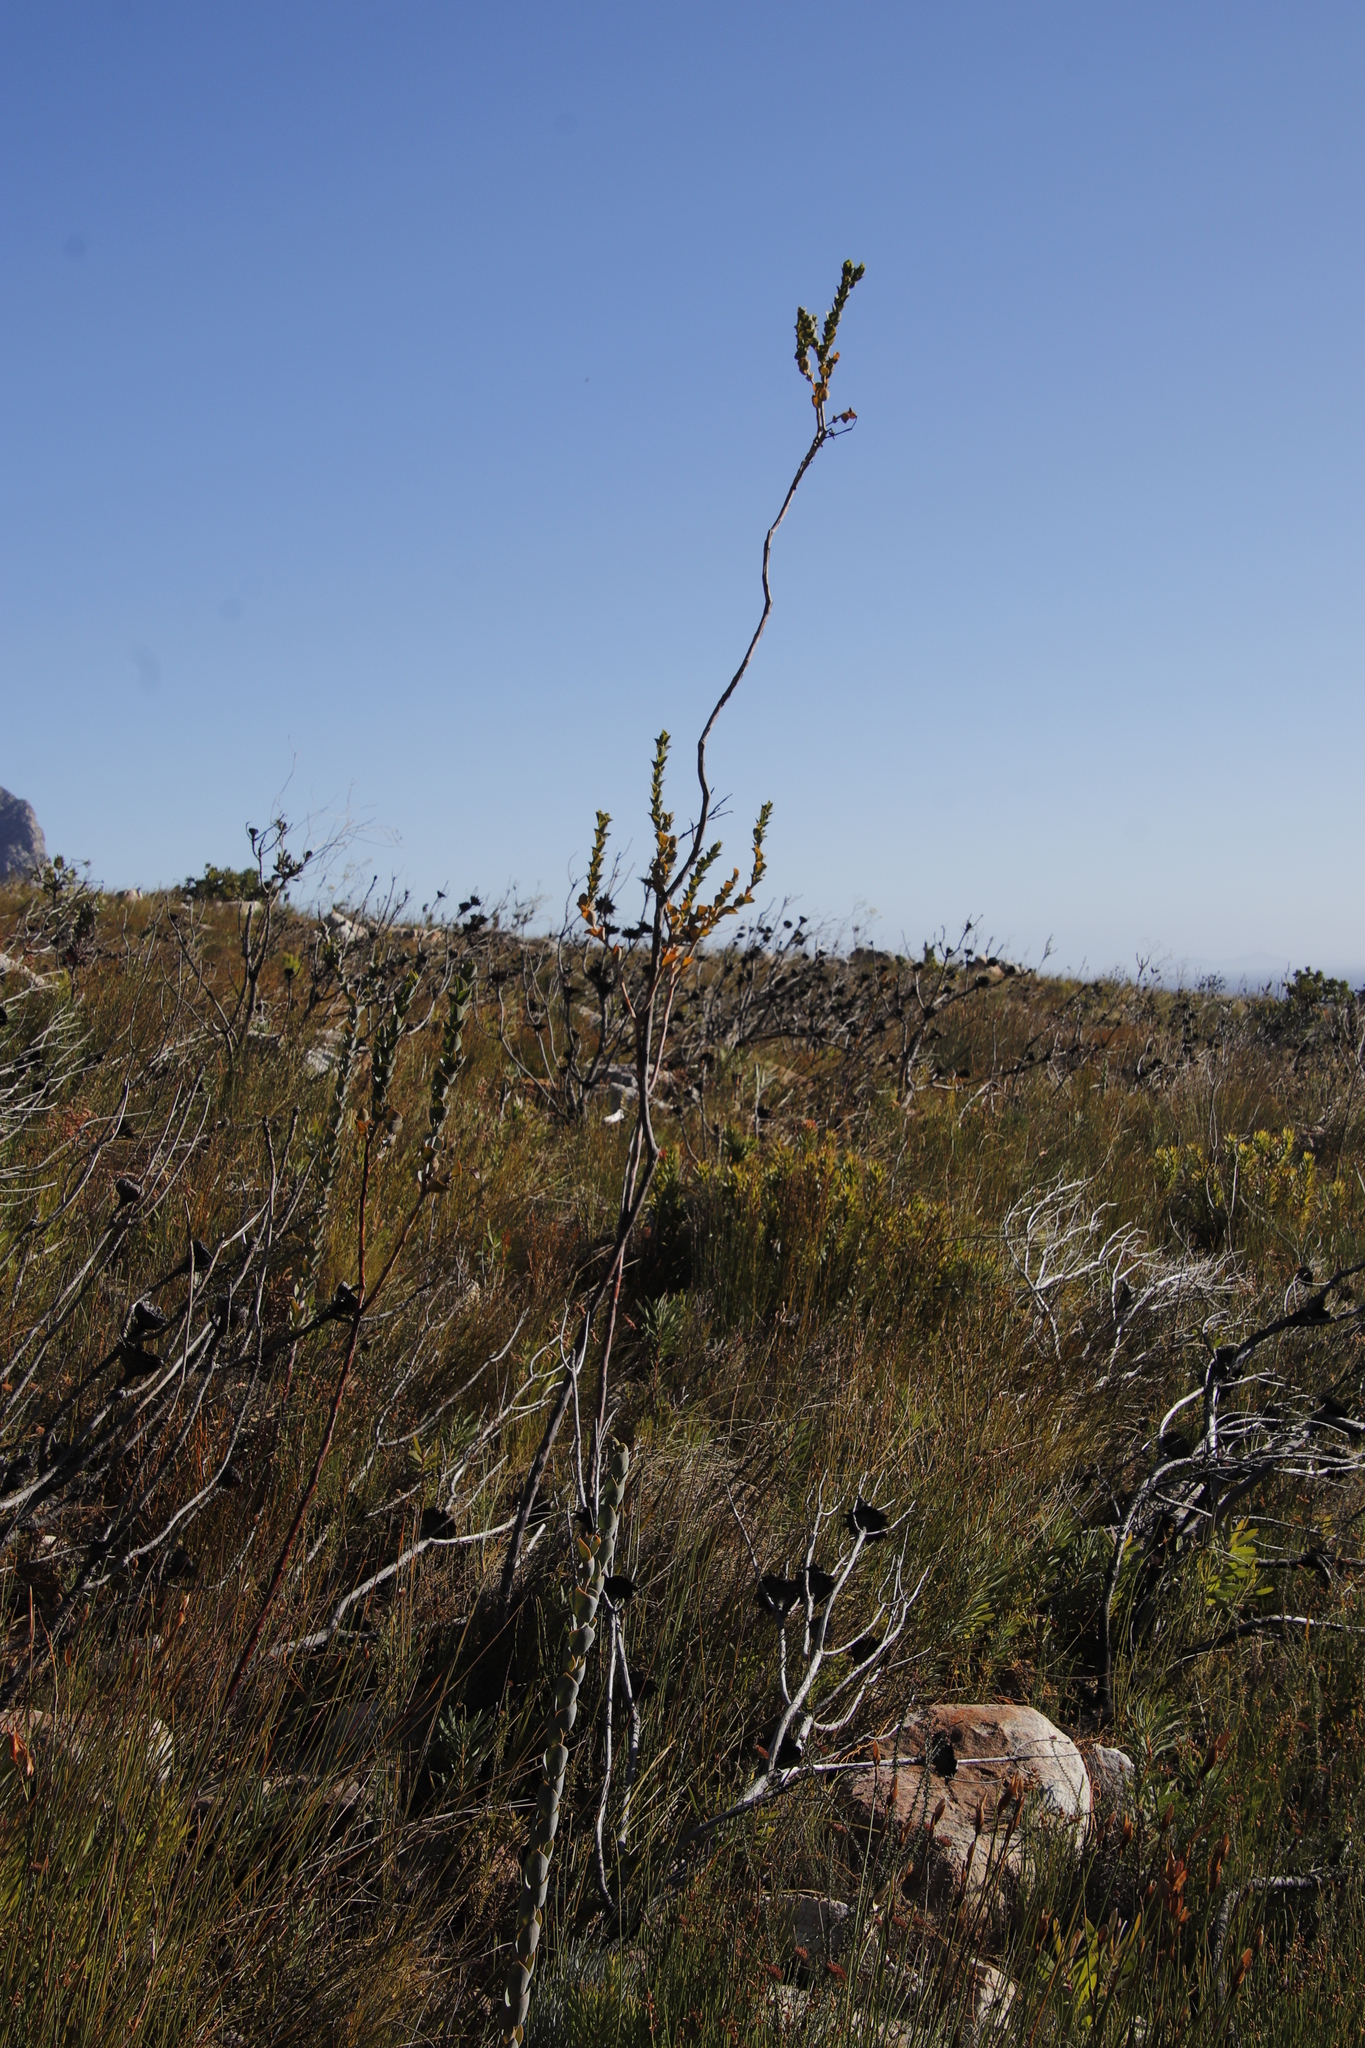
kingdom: Plantae
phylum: Tracheophyta
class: Magnoliopsida
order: Santalales
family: Thesiaceae
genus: Thesium
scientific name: Thesium euphorbioides
